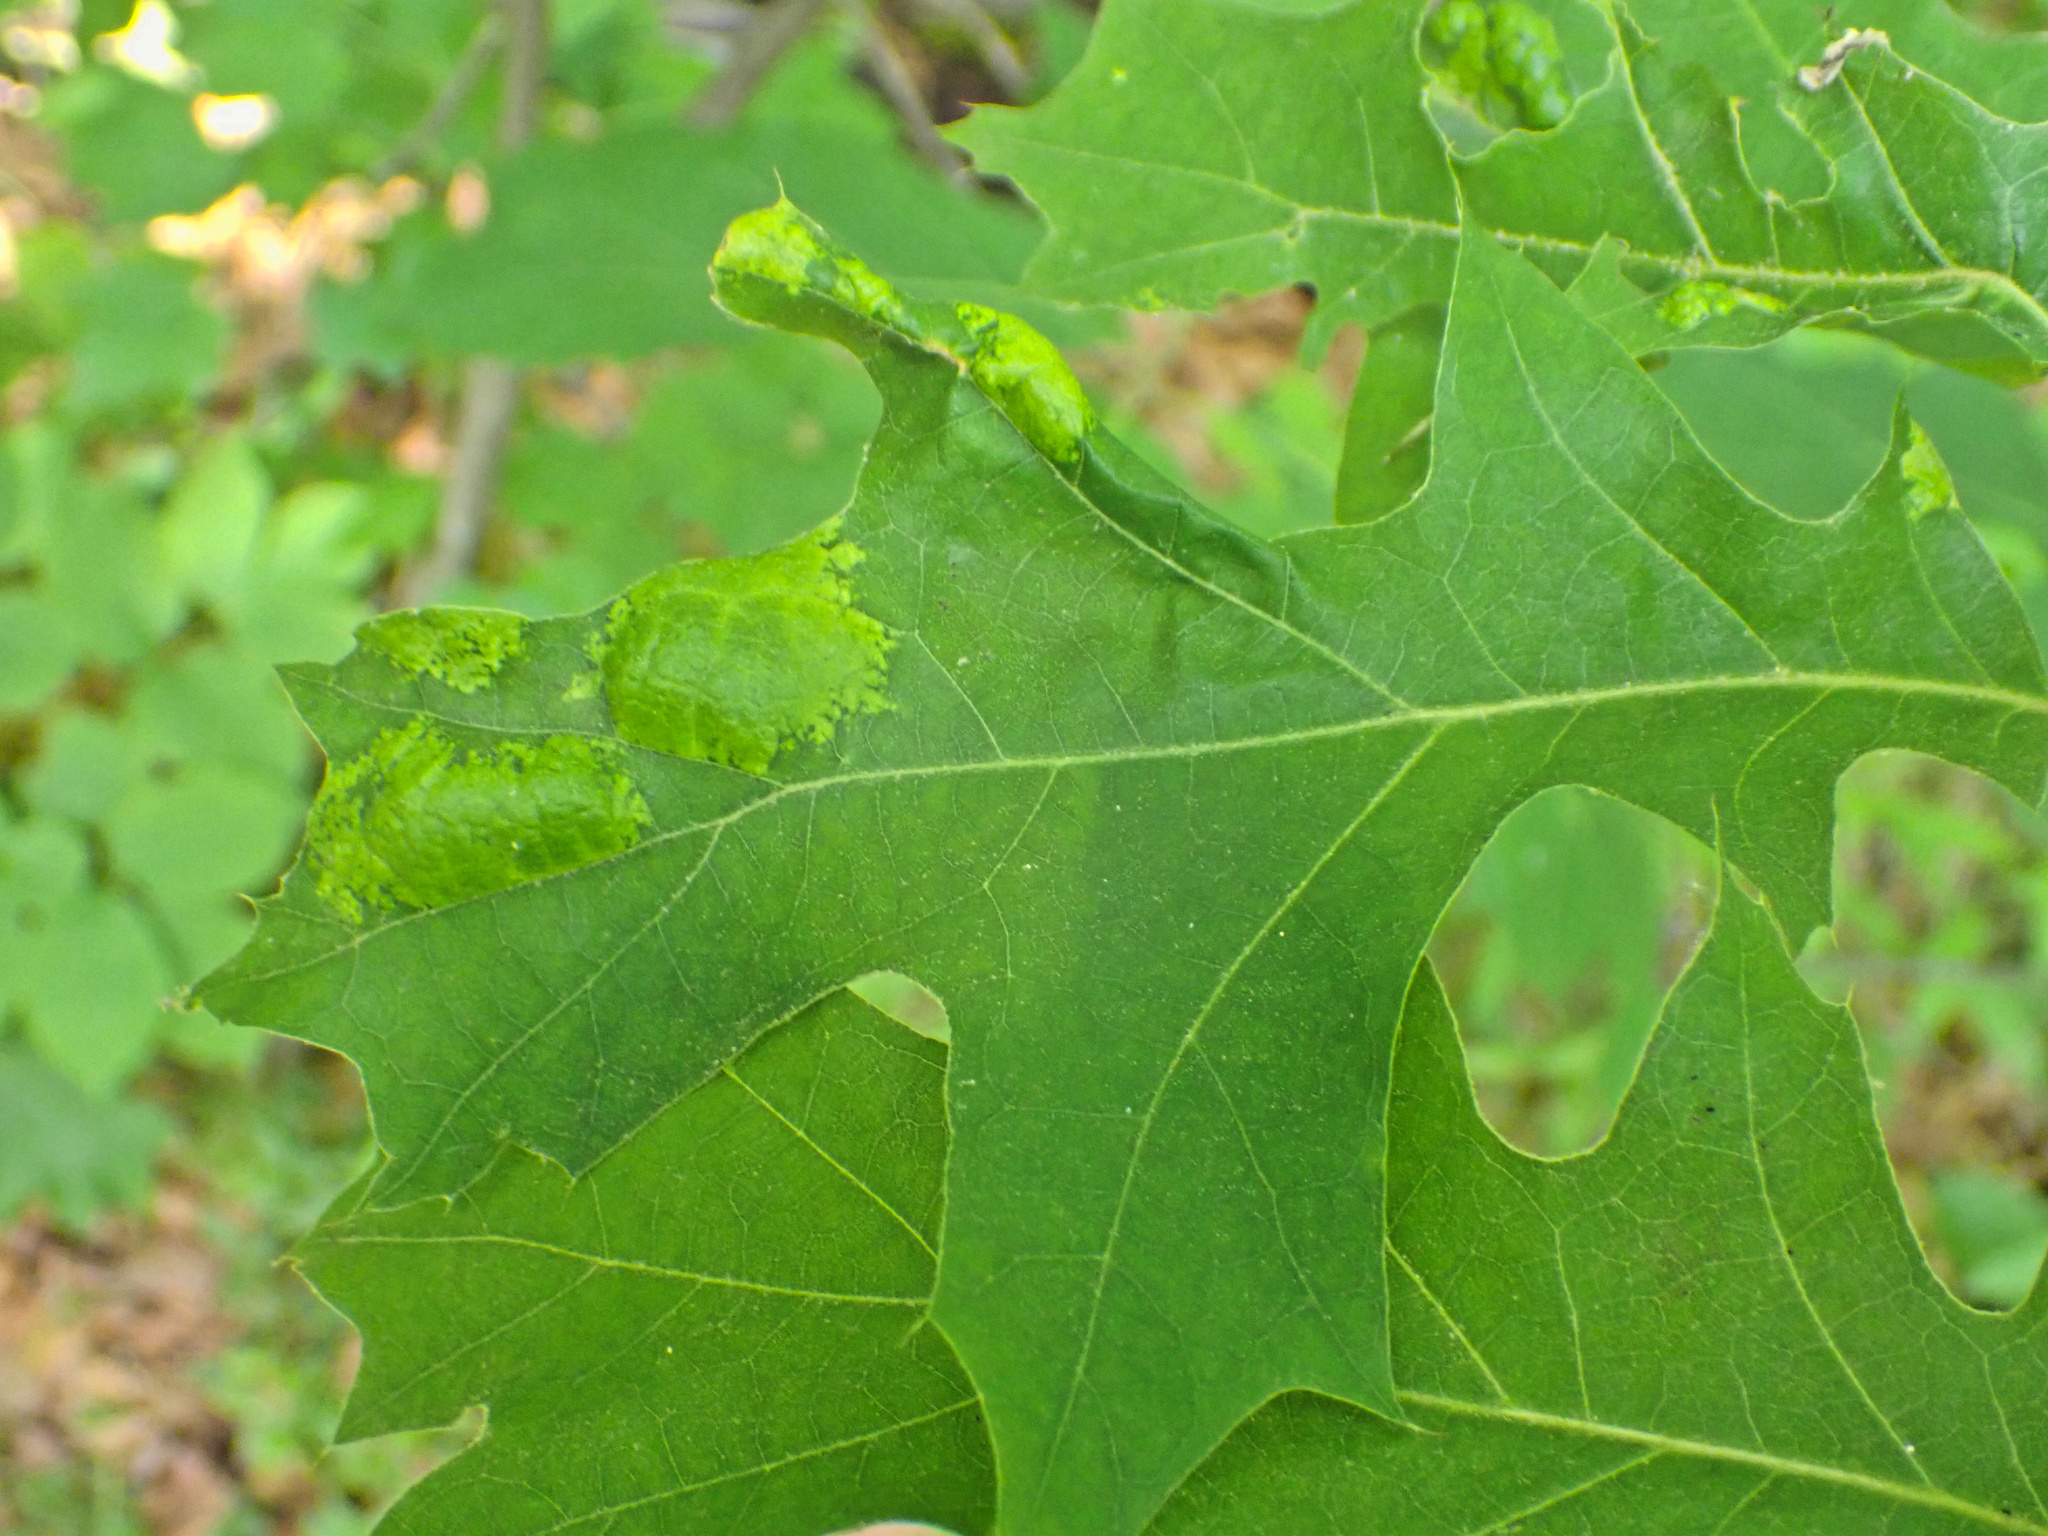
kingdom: Fungi
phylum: Ascomycota
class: Taphrinomycetes
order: Taphrinales
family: Taphrinaceae
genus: Taphrina
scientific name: Taphrina caerulescens
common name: Oak leaf blister
